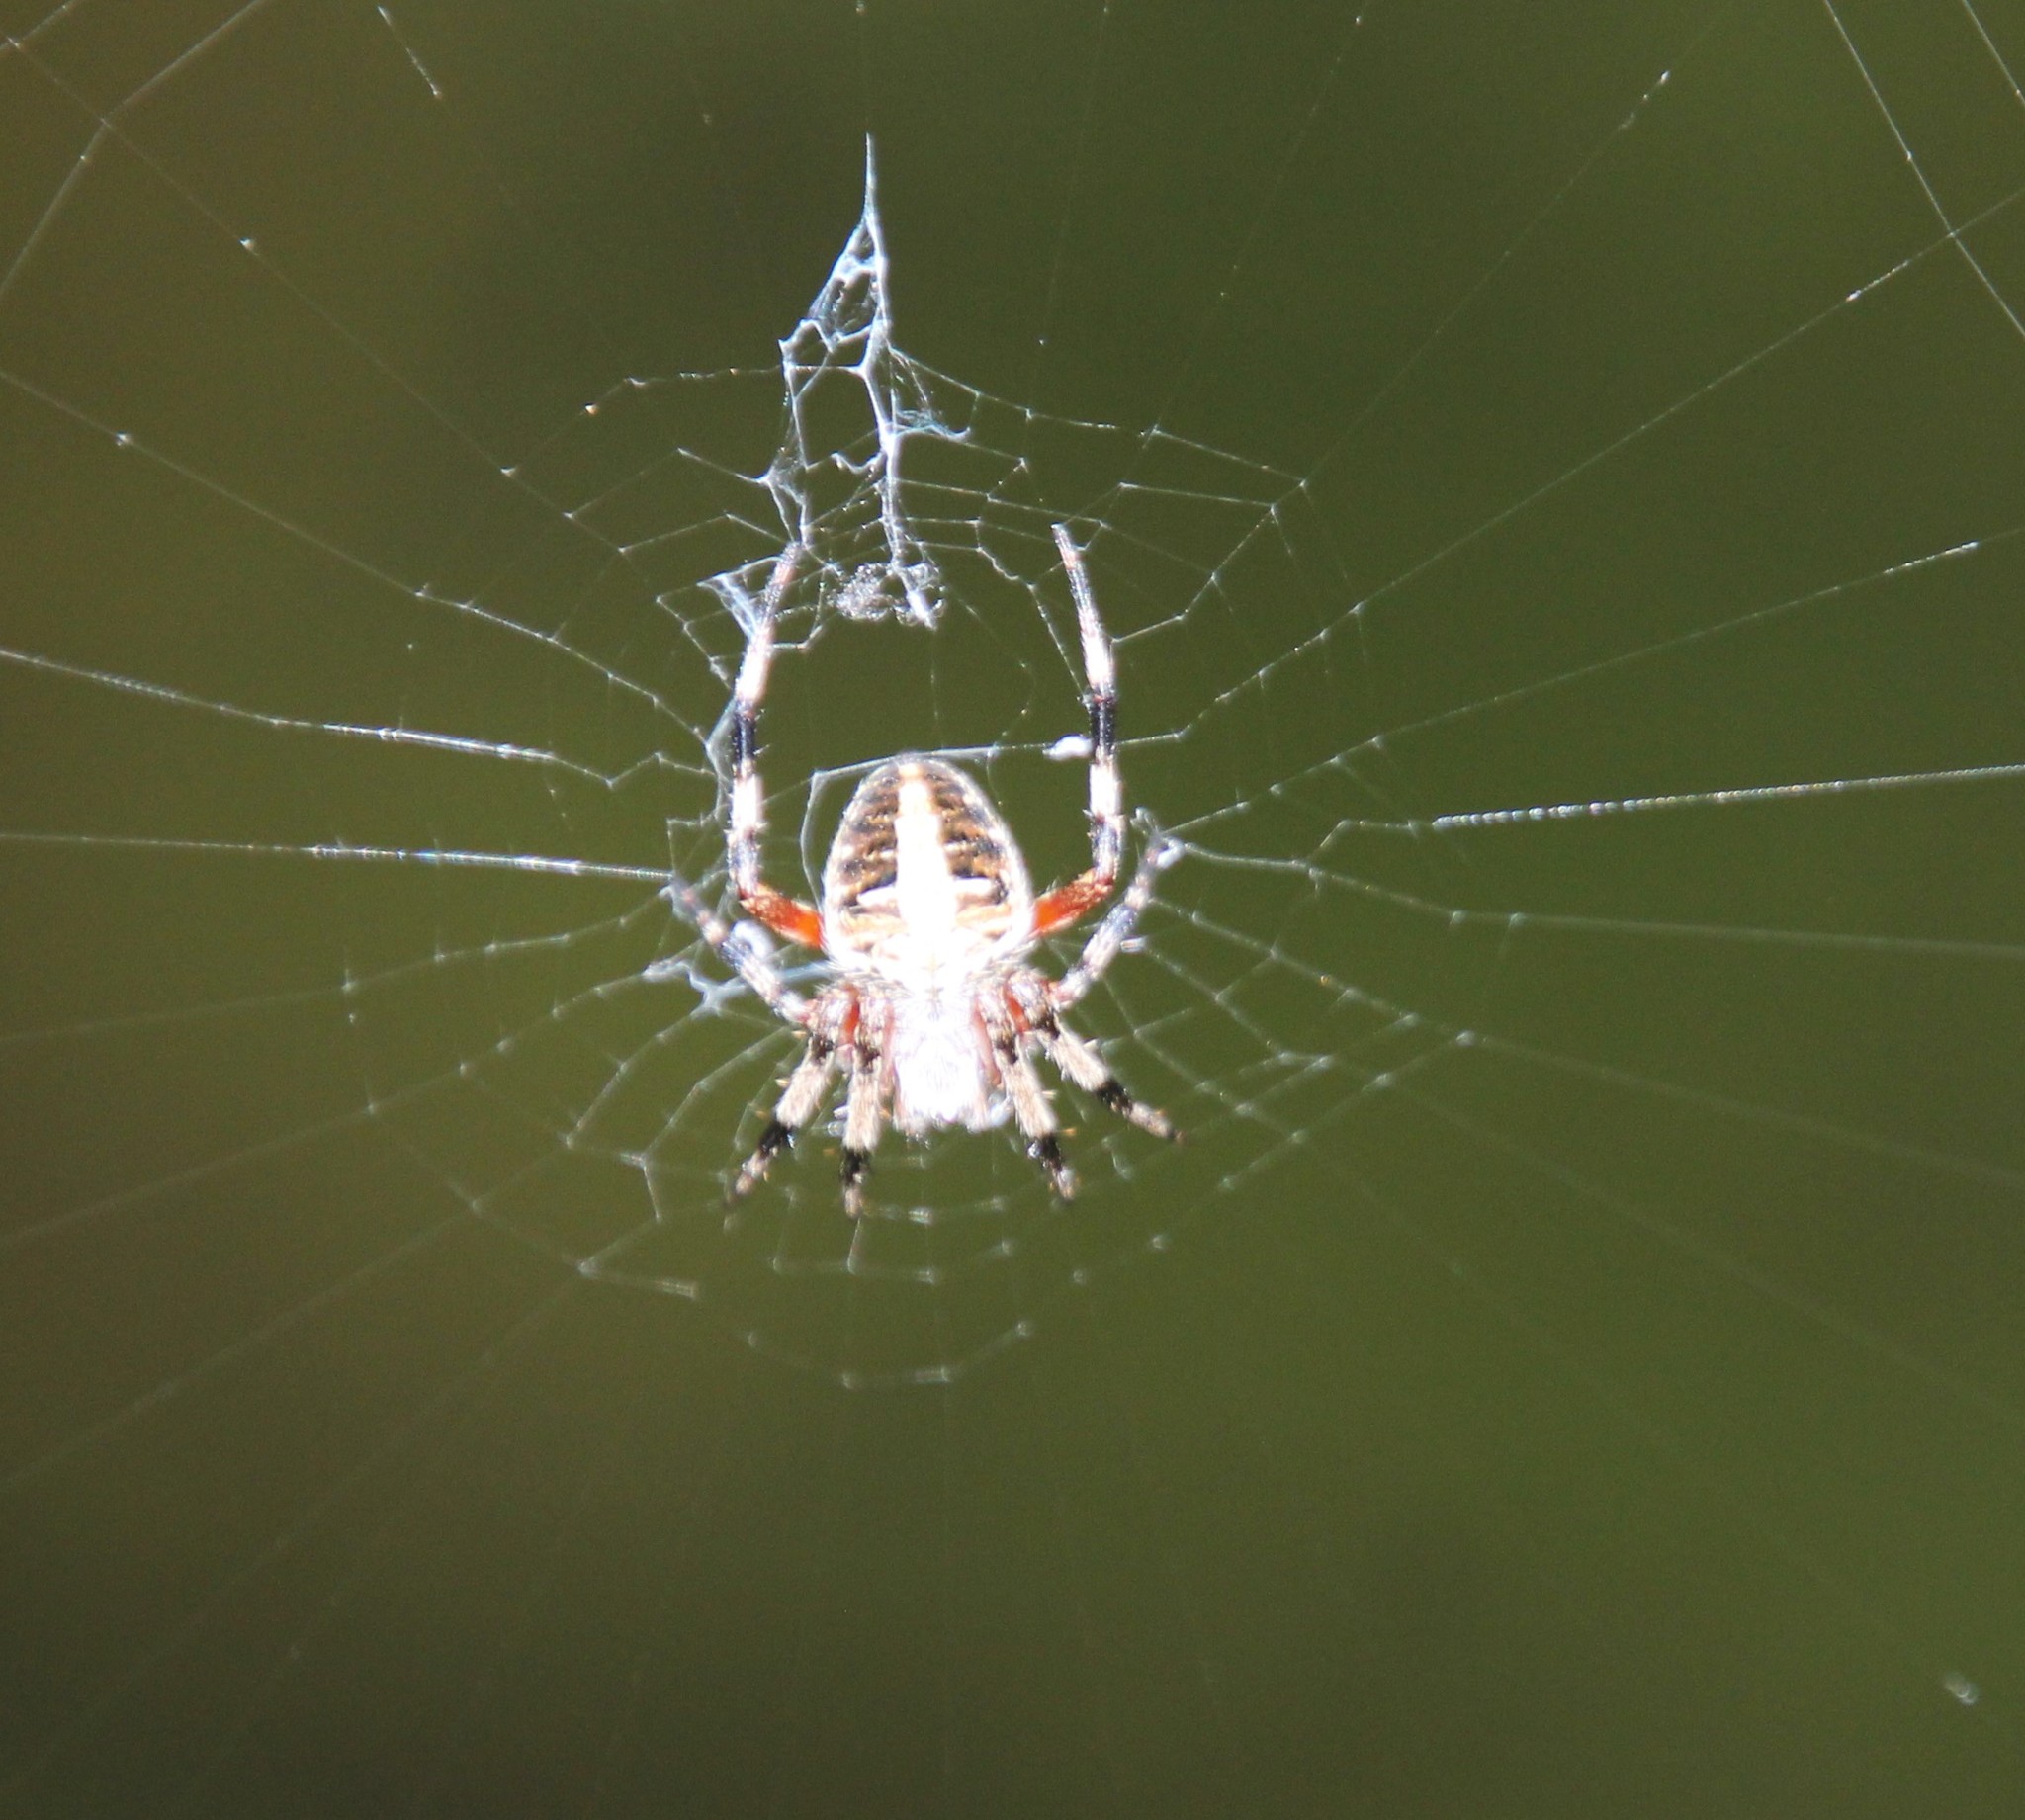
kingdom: Animalia
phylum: Arthropoda
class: Arachnida
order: Araneae
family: Araneidae
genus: Neoscona
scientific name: Neoscona domiciliorum
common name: Red-femured spotted orbweaver
